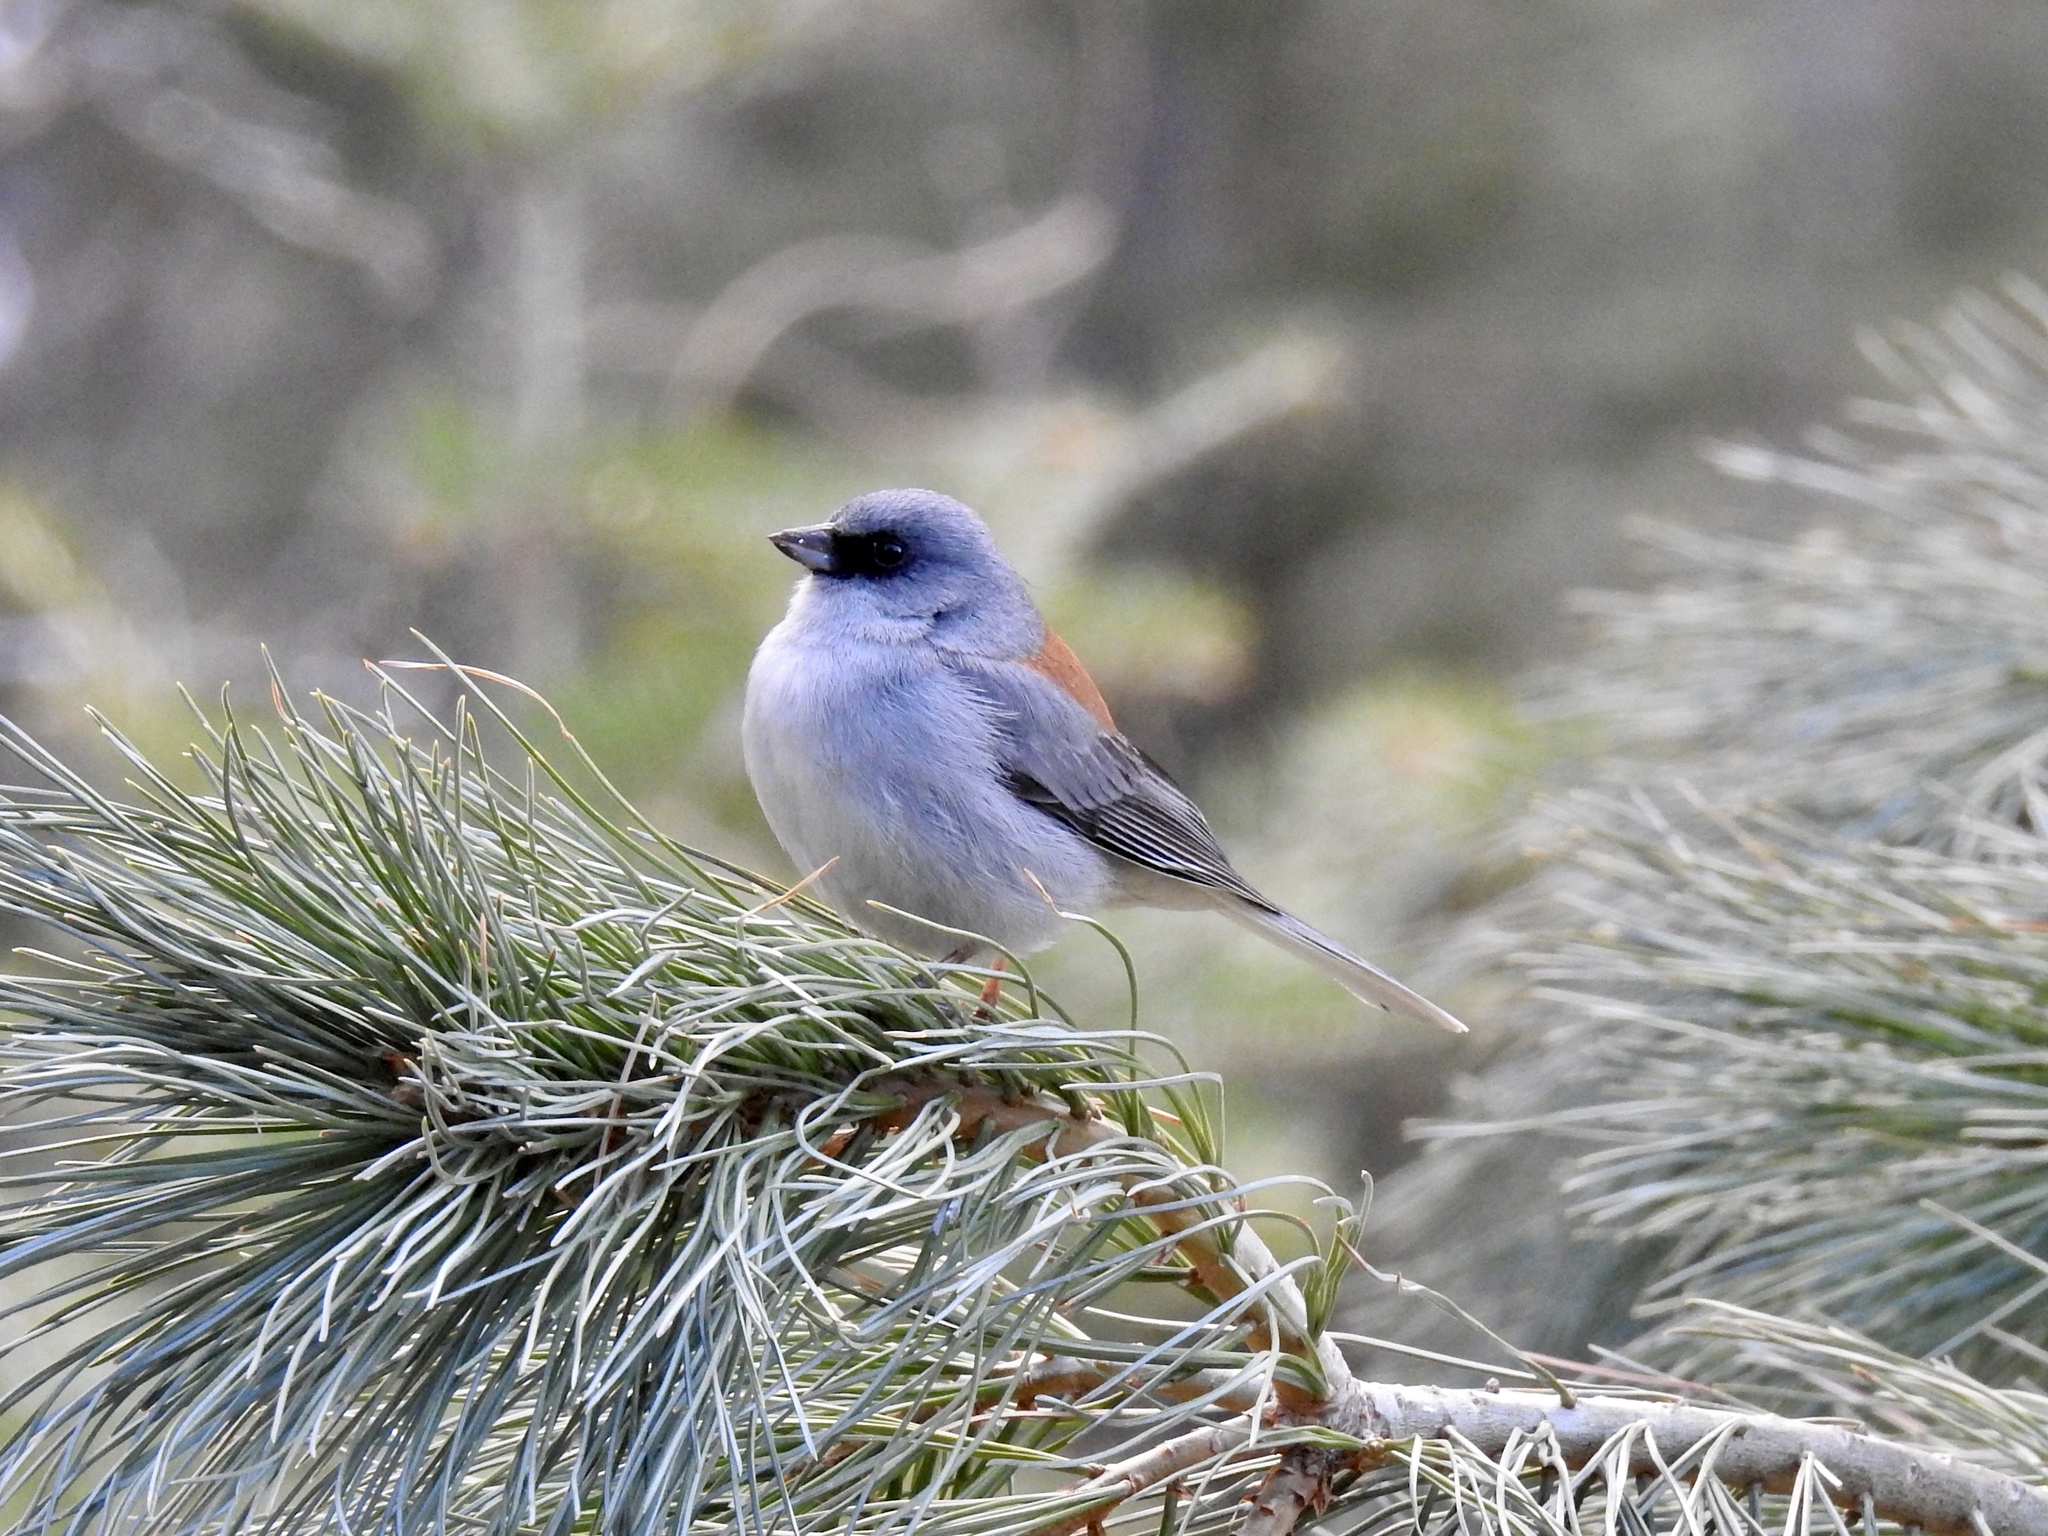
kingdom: Animalia
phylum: Chordata
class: Aves
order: Passeriformes
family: Passerellidae
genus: Junco
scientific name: Junco hyemalis
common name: Dark-eyed junco
